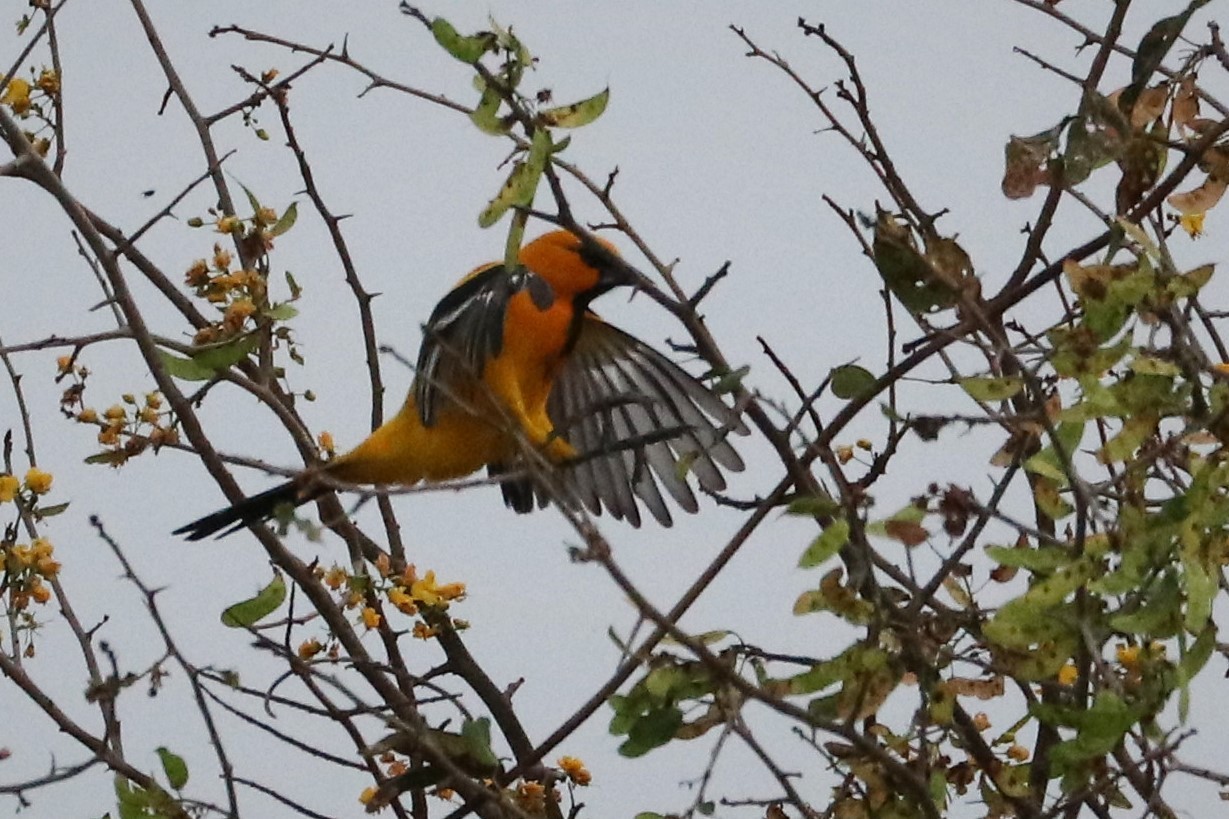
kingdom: Animalia
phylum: Chordata
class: Aves
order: Passeriformes
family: Icteridae
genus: Icterus
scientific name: Icterus nigrogularis
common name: Yellow oriole
